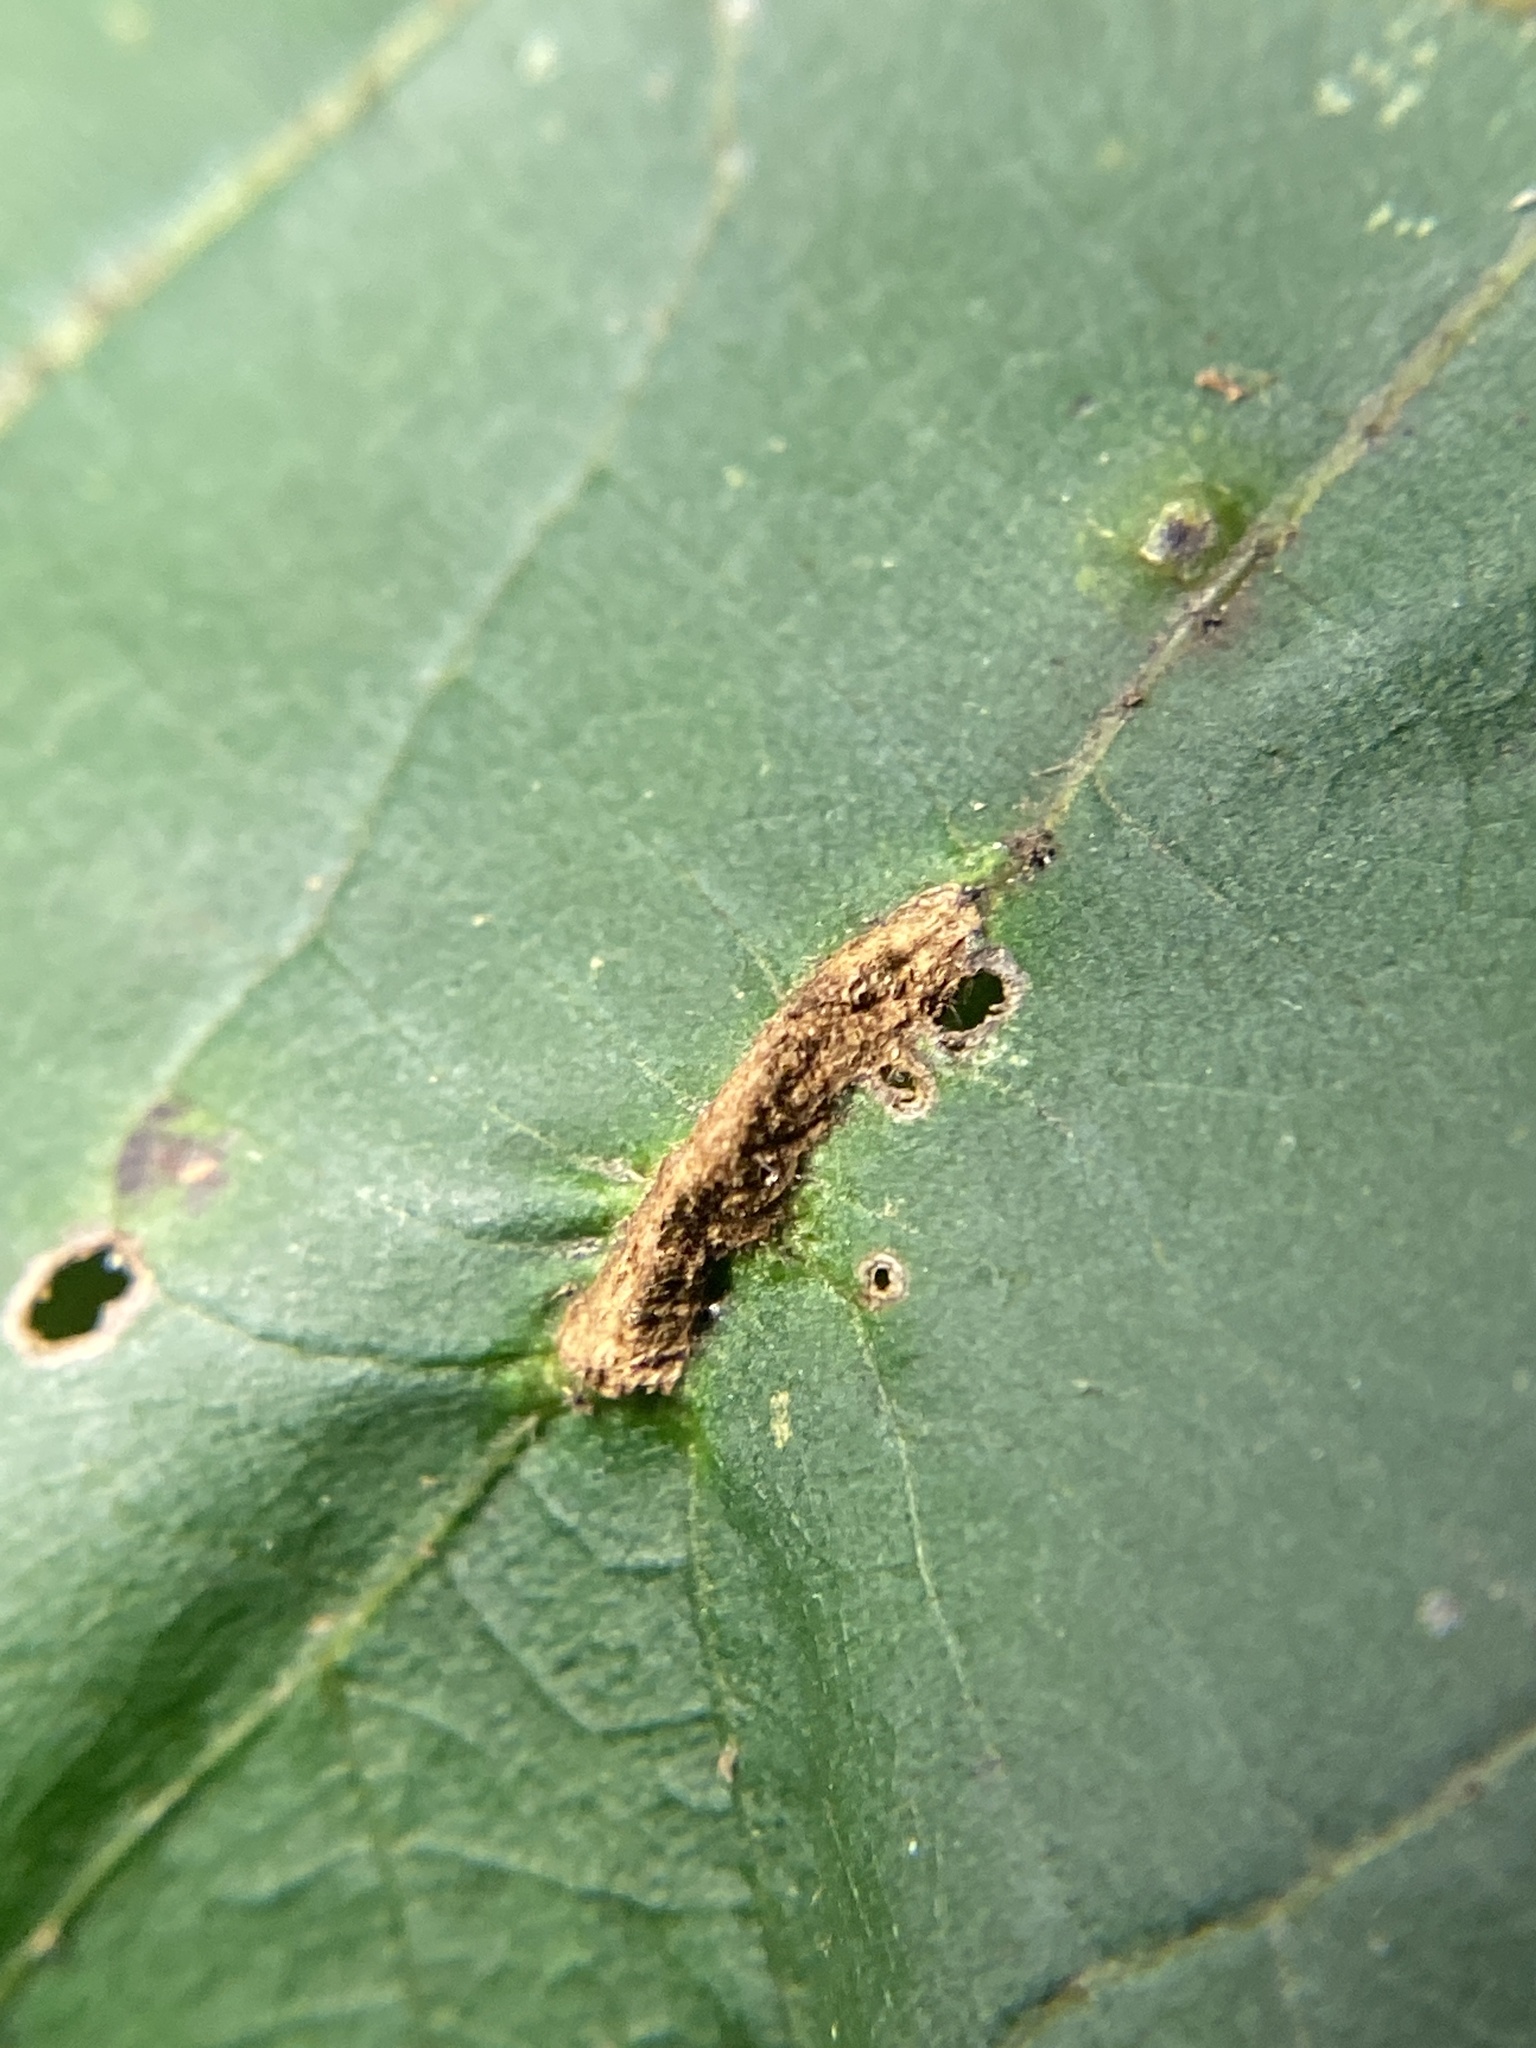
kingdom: Animalia
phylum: Arthropoda
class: Insecta
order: Hemiptera
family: Phylloxeridae
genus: Phylloxera
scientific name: Phylloxera caryaevenae
